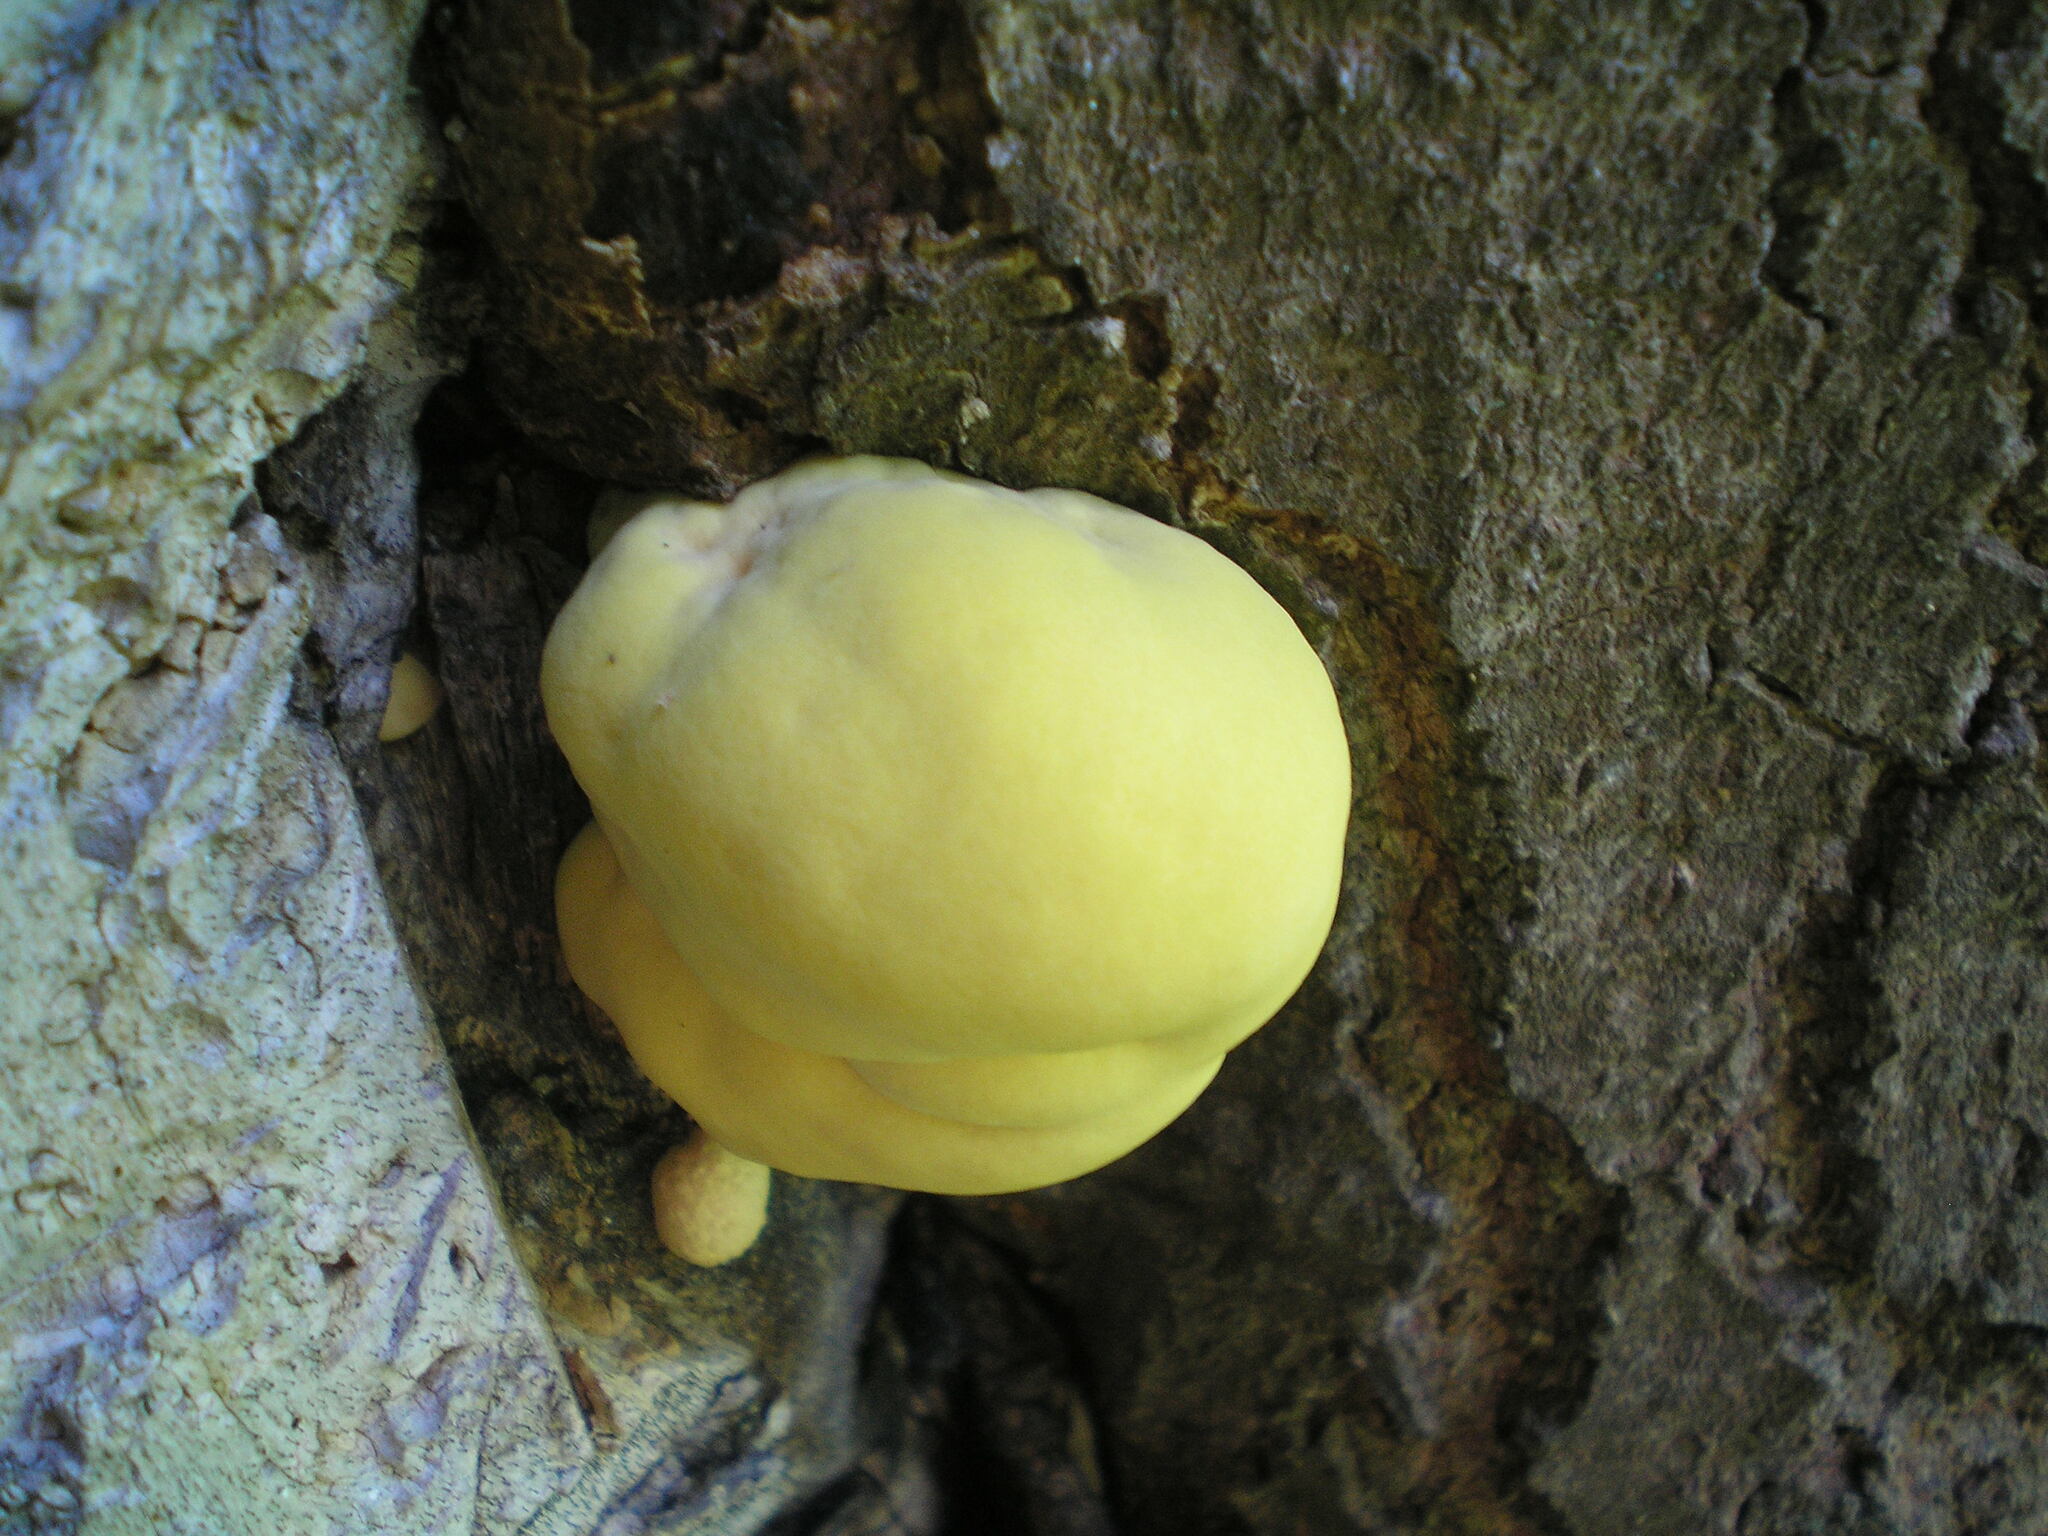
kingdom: Fungi
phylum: Basidiomycota
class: Agaricomycetes
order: Polyporales
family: Laetiporaceae
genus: Laetiporus
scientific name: Laetiporus sulphureus
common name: Chicken of the woods
